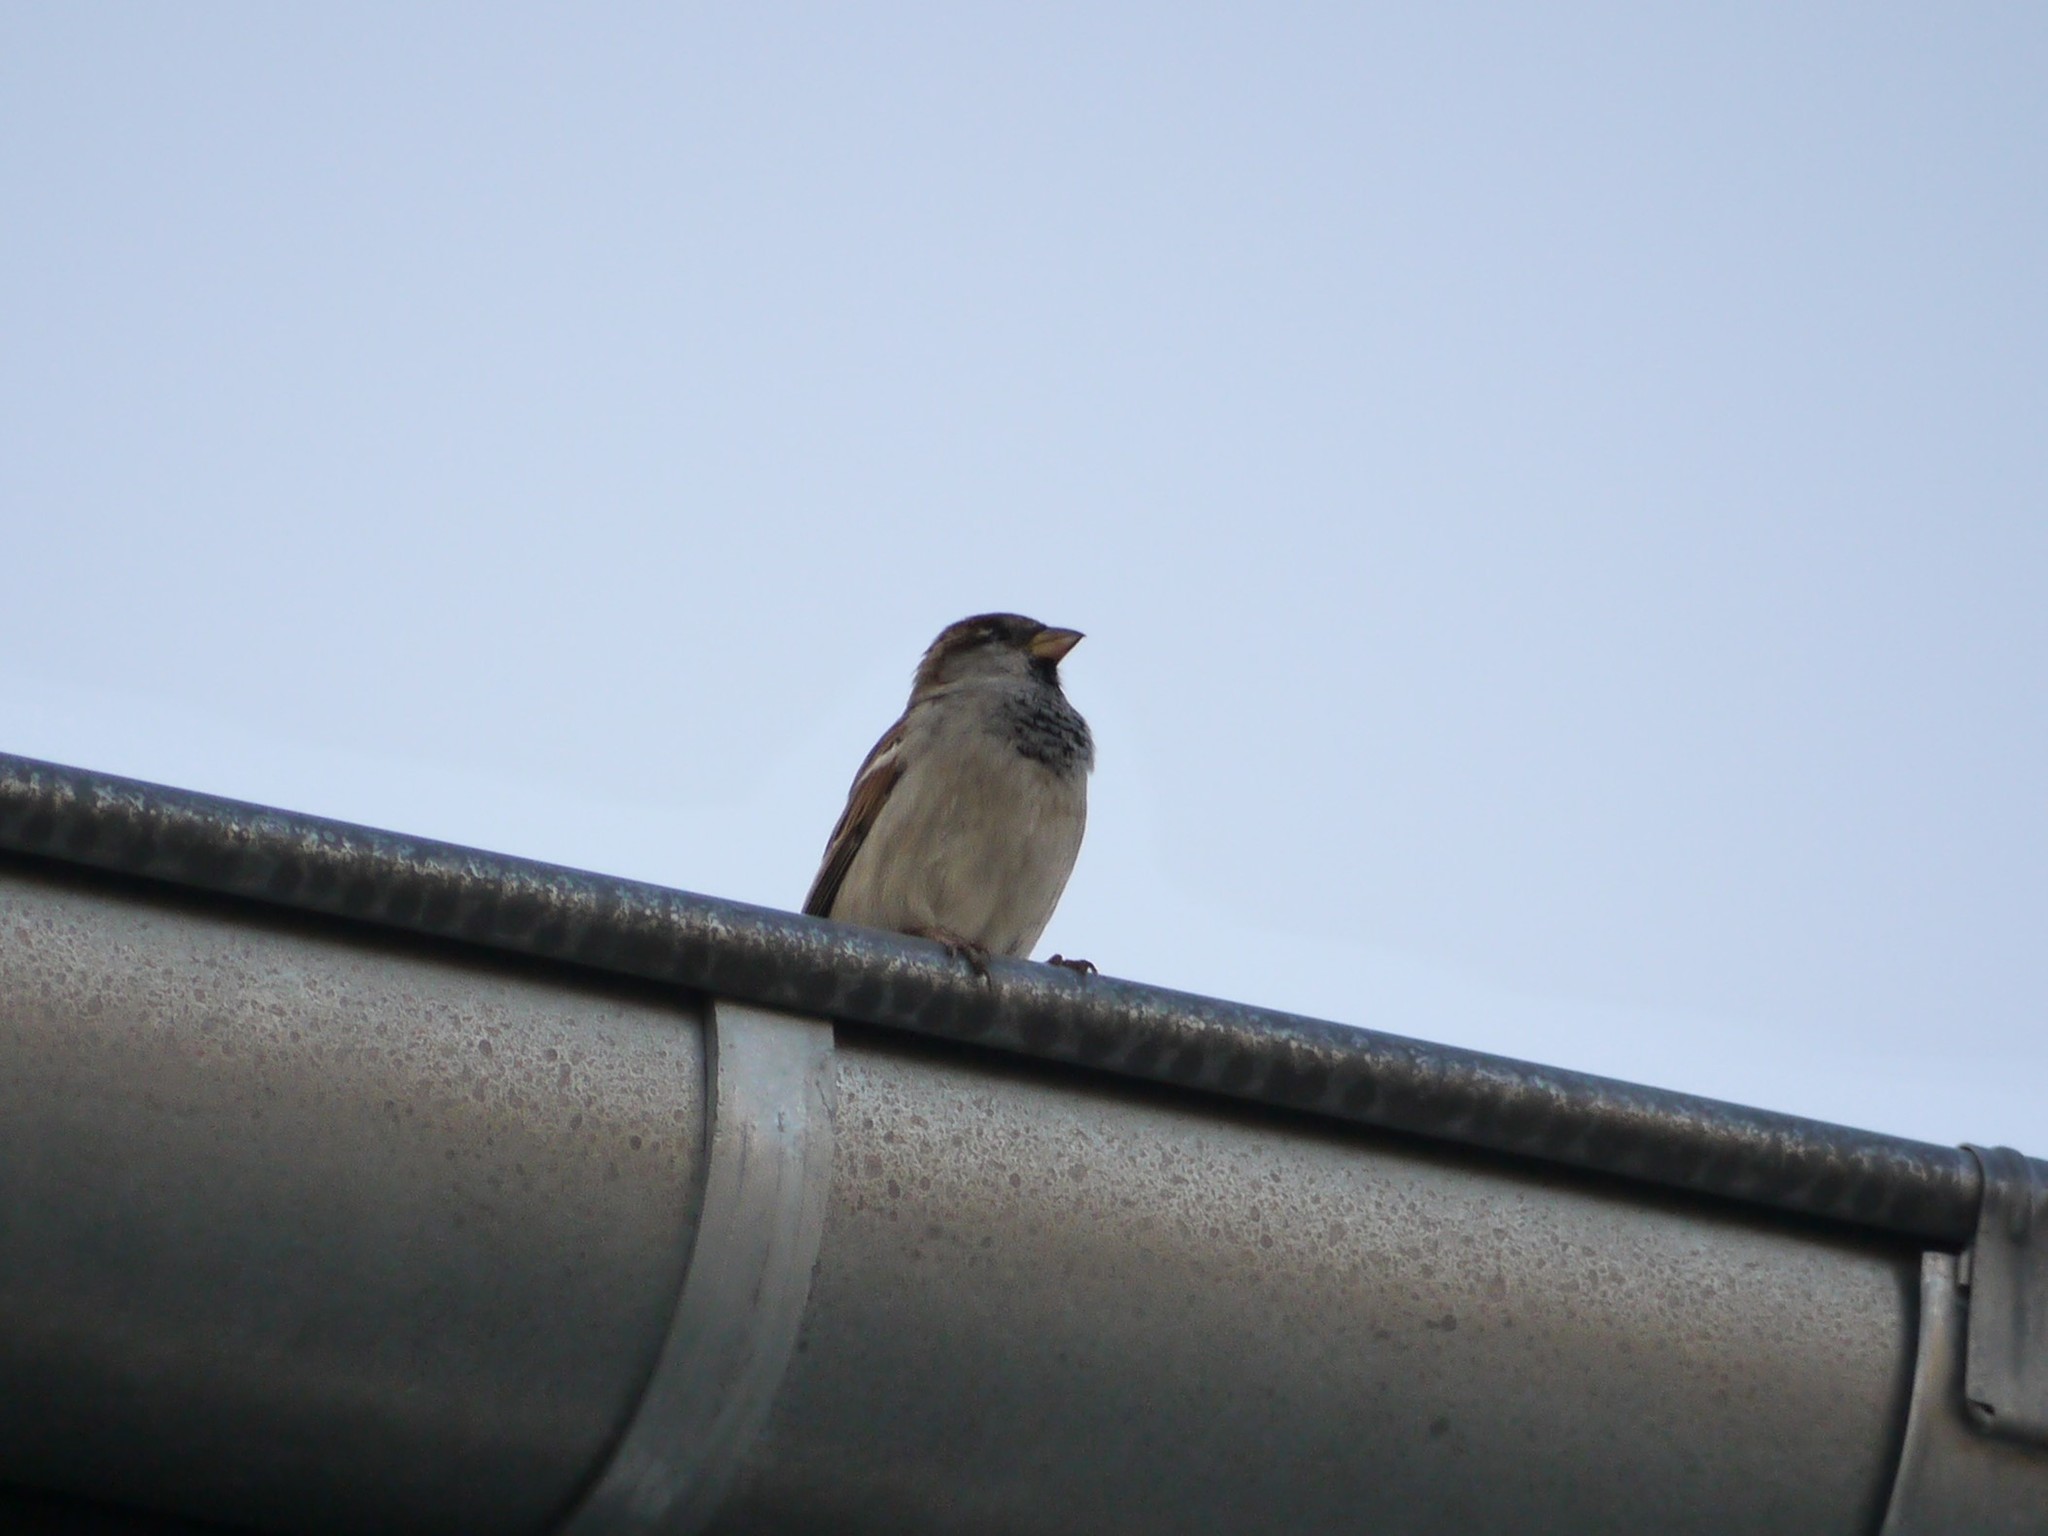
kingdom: Animalia
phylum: Chordata
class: Aves
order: Passeriformes
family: Passeridae
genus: Passer
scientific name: Passer domesticus
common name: House sparrow
